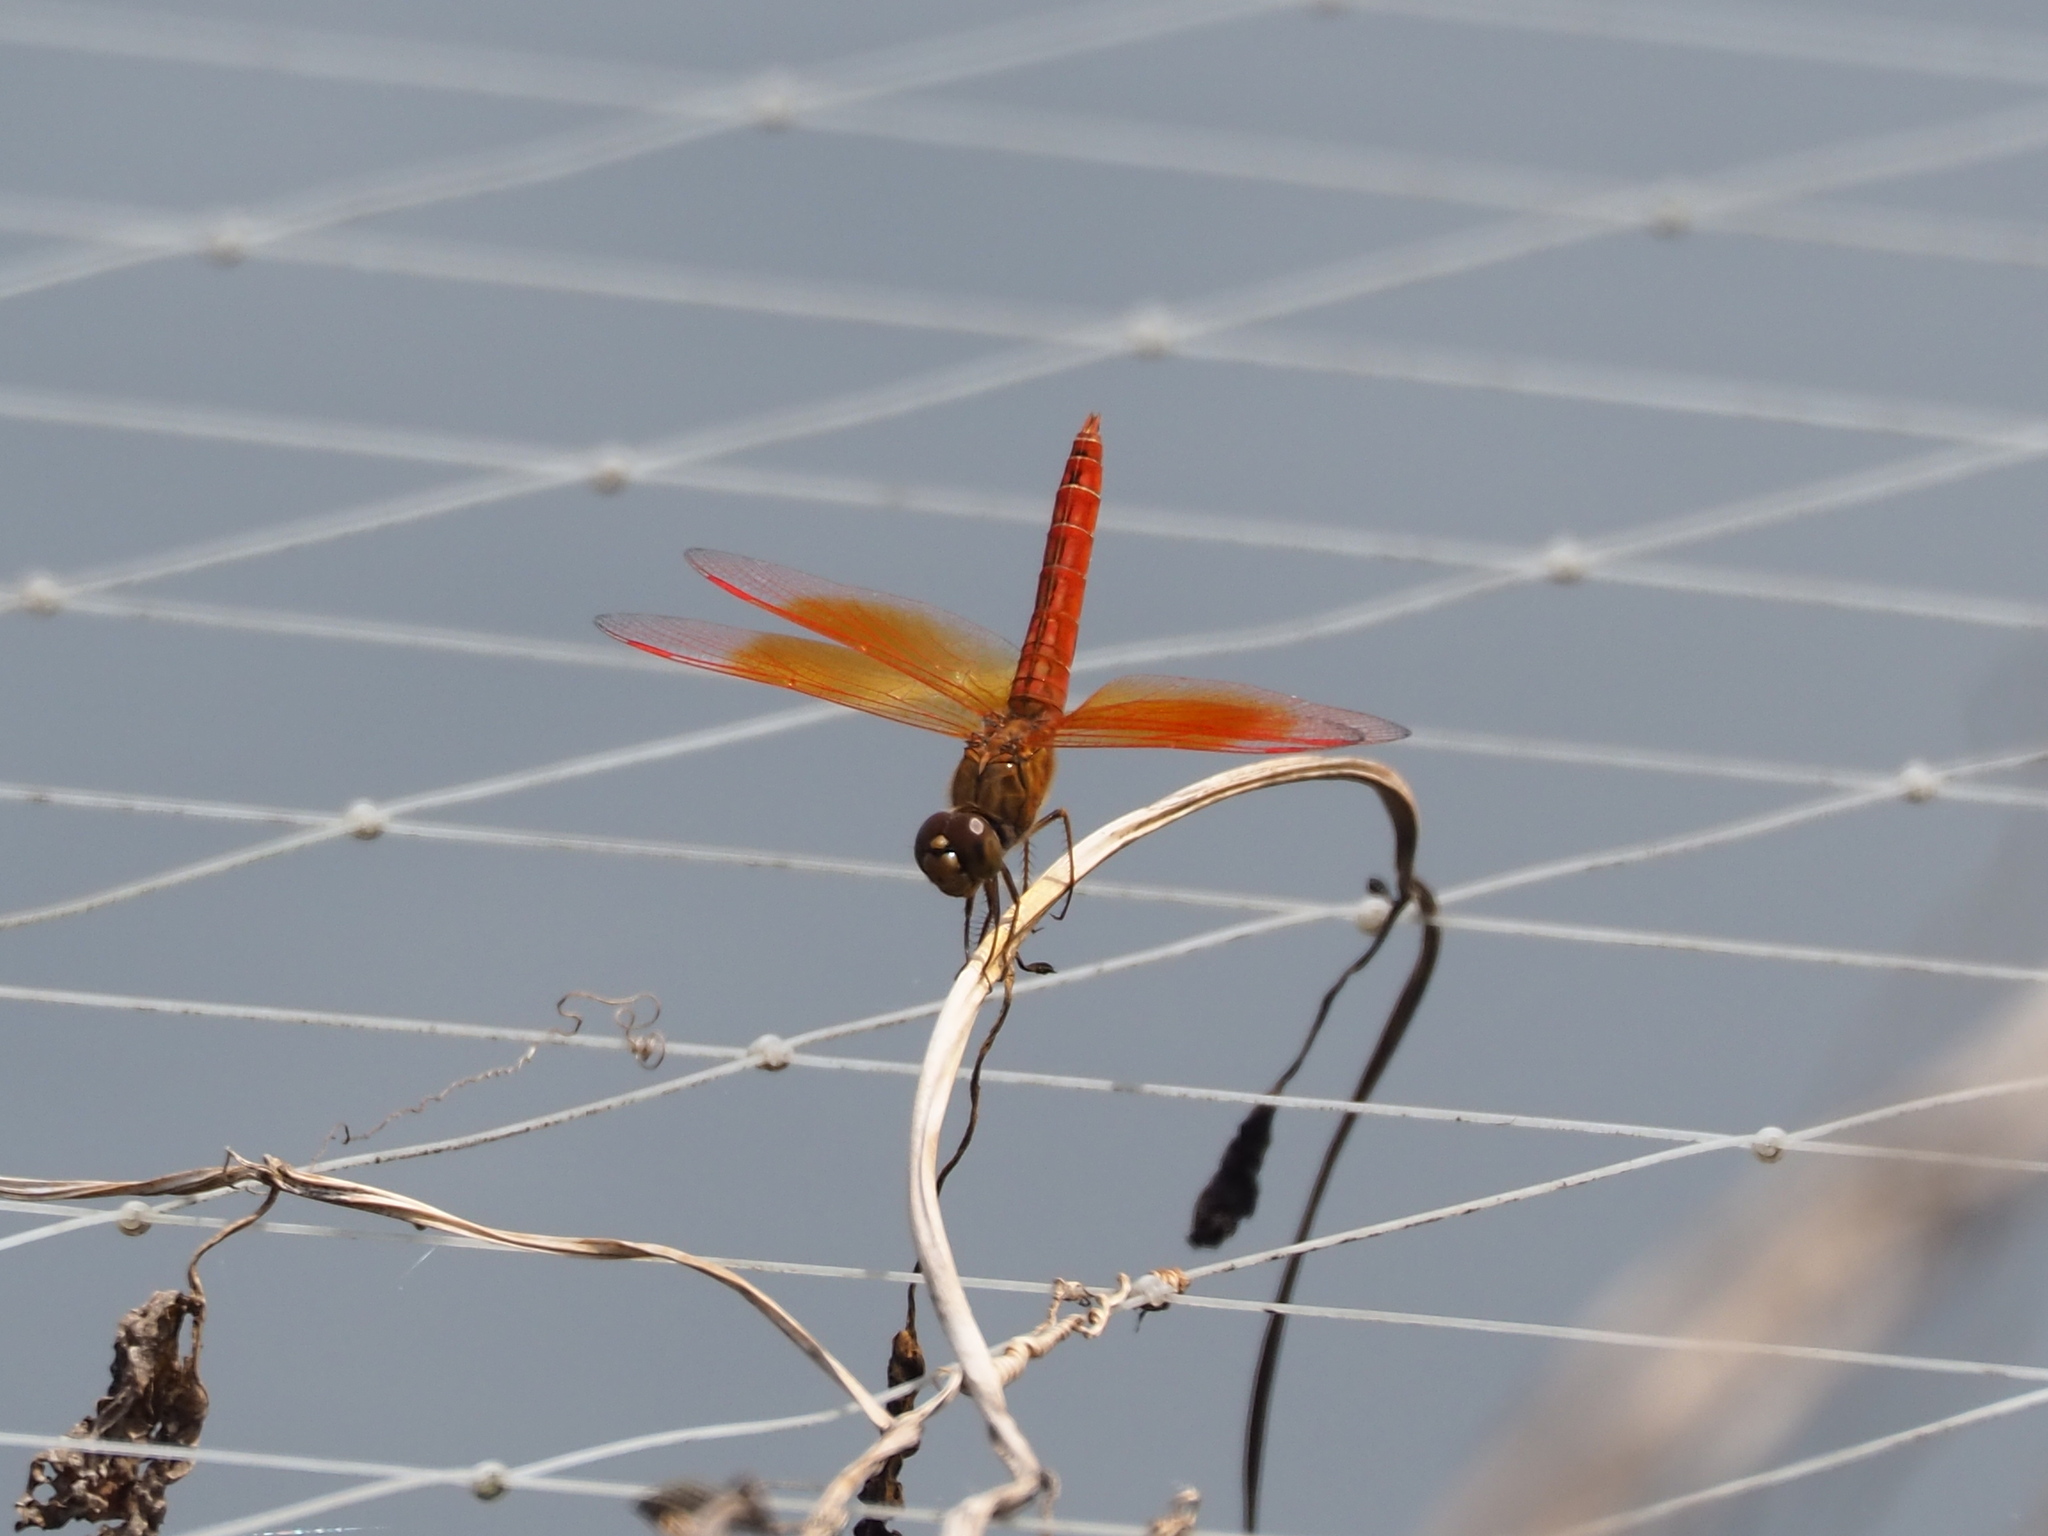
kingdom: Animalia
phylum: Arthropoda
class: Insecta
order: Odonata
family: Libellulidae
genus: Brachythemis
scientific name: Brachythemis contaminata
